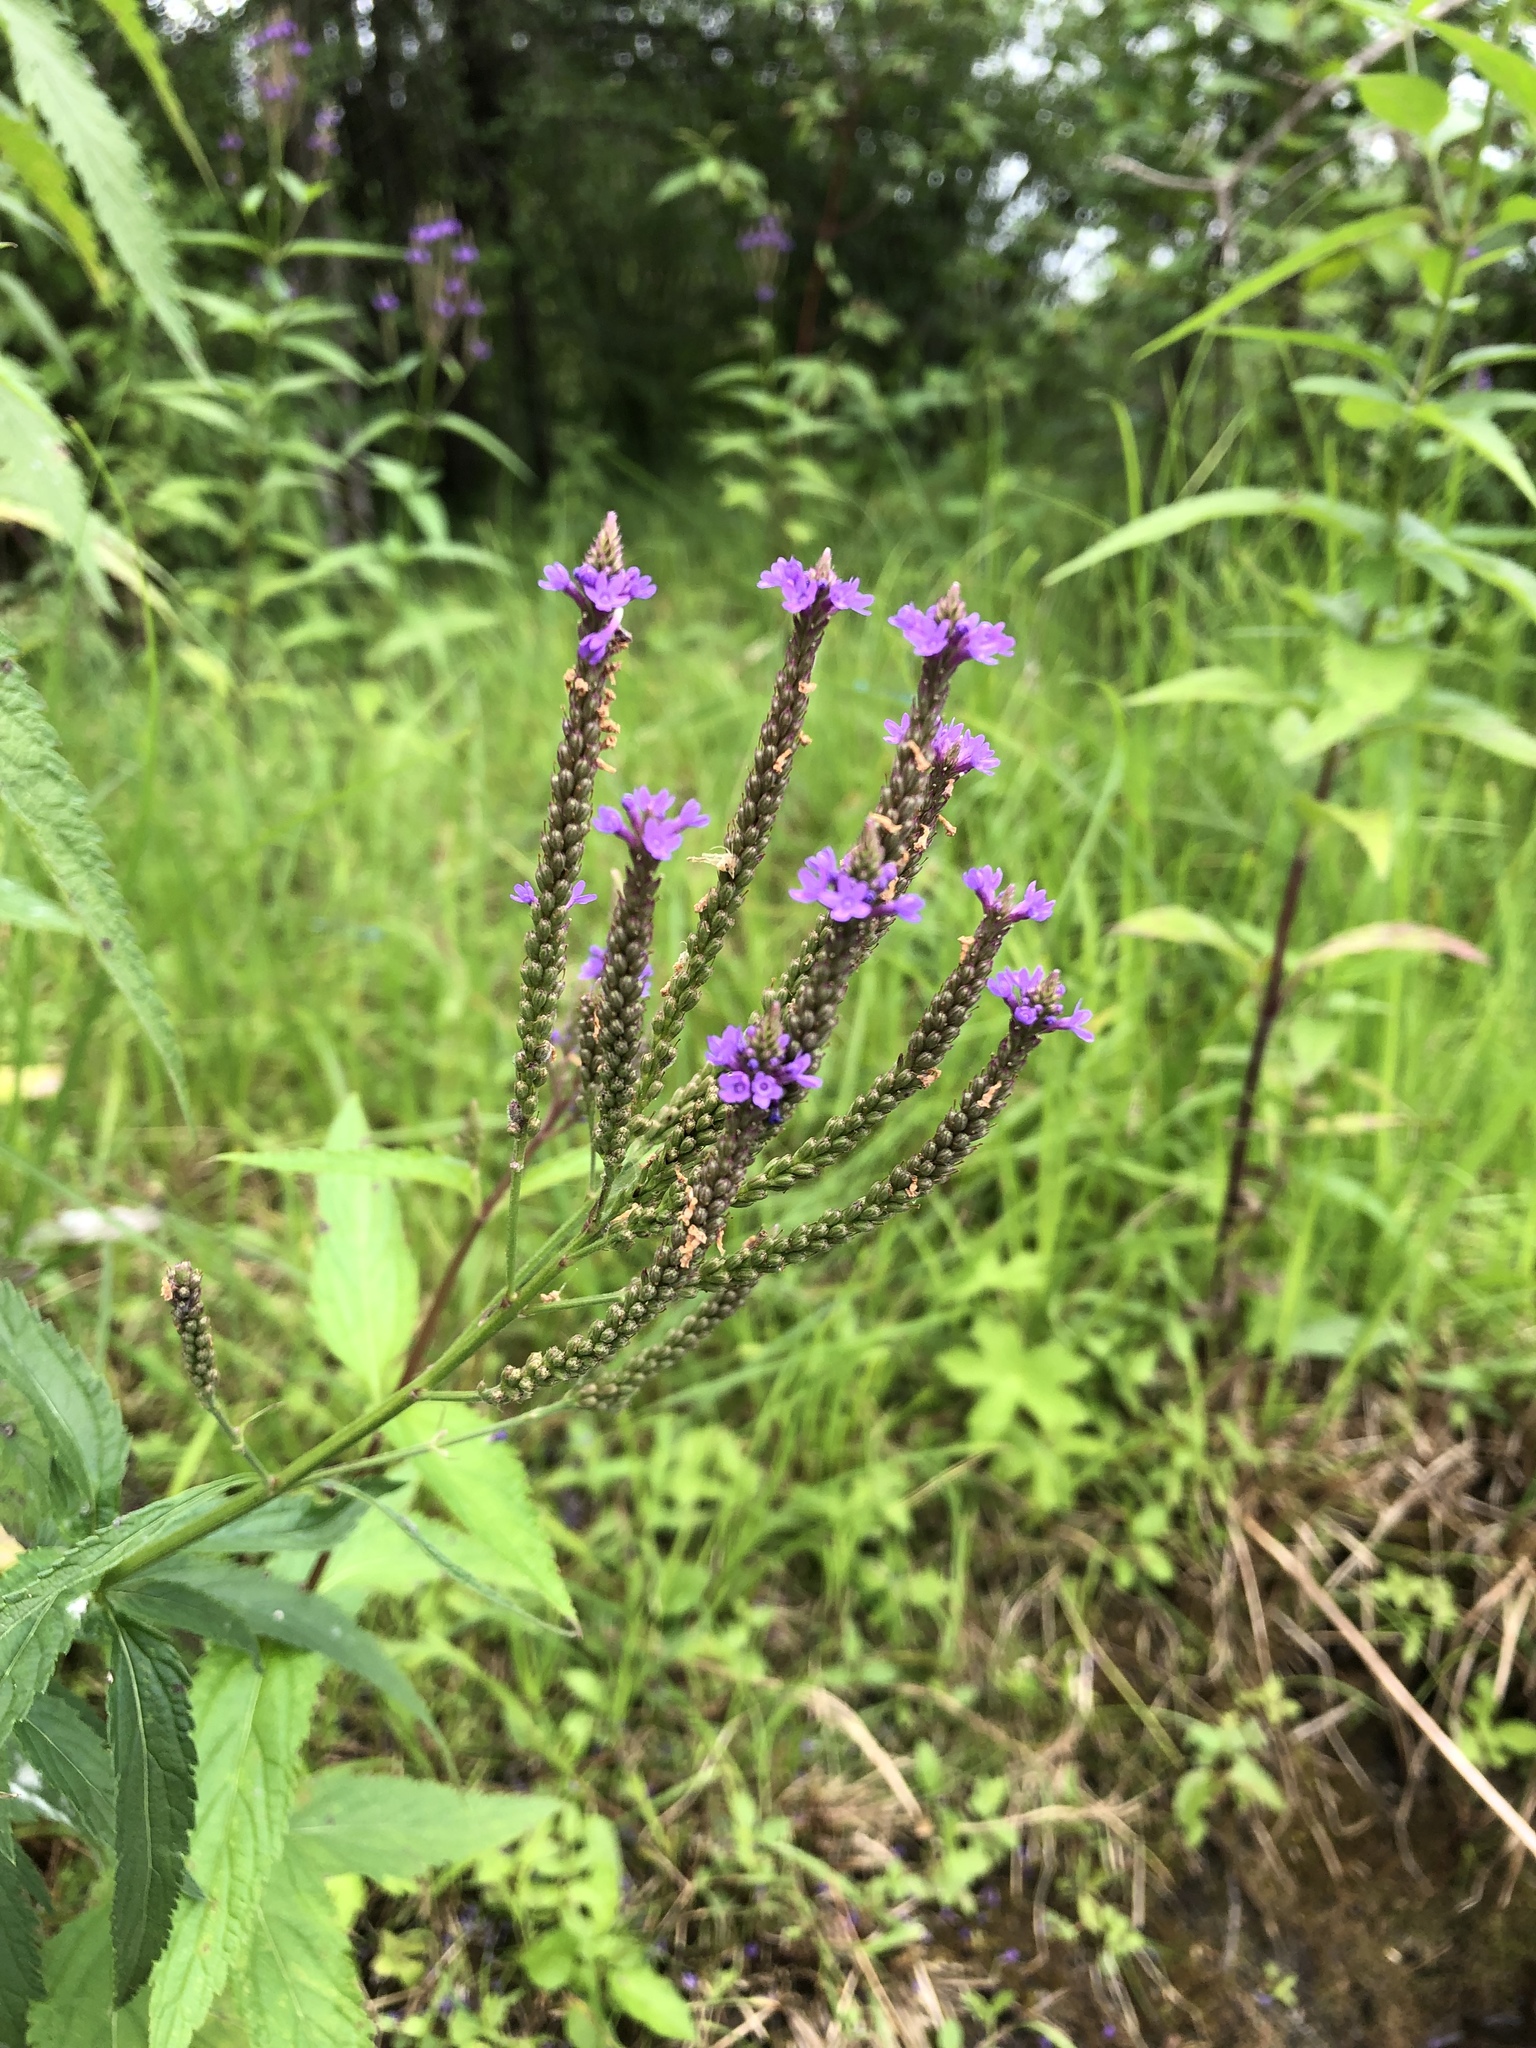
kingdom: Plantae
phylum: Tracheophyta
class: Magnoliopsida
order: Lamiales
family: Verbenaceae
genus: Verbena
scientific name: Verbena hastata
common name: American blue vervain
